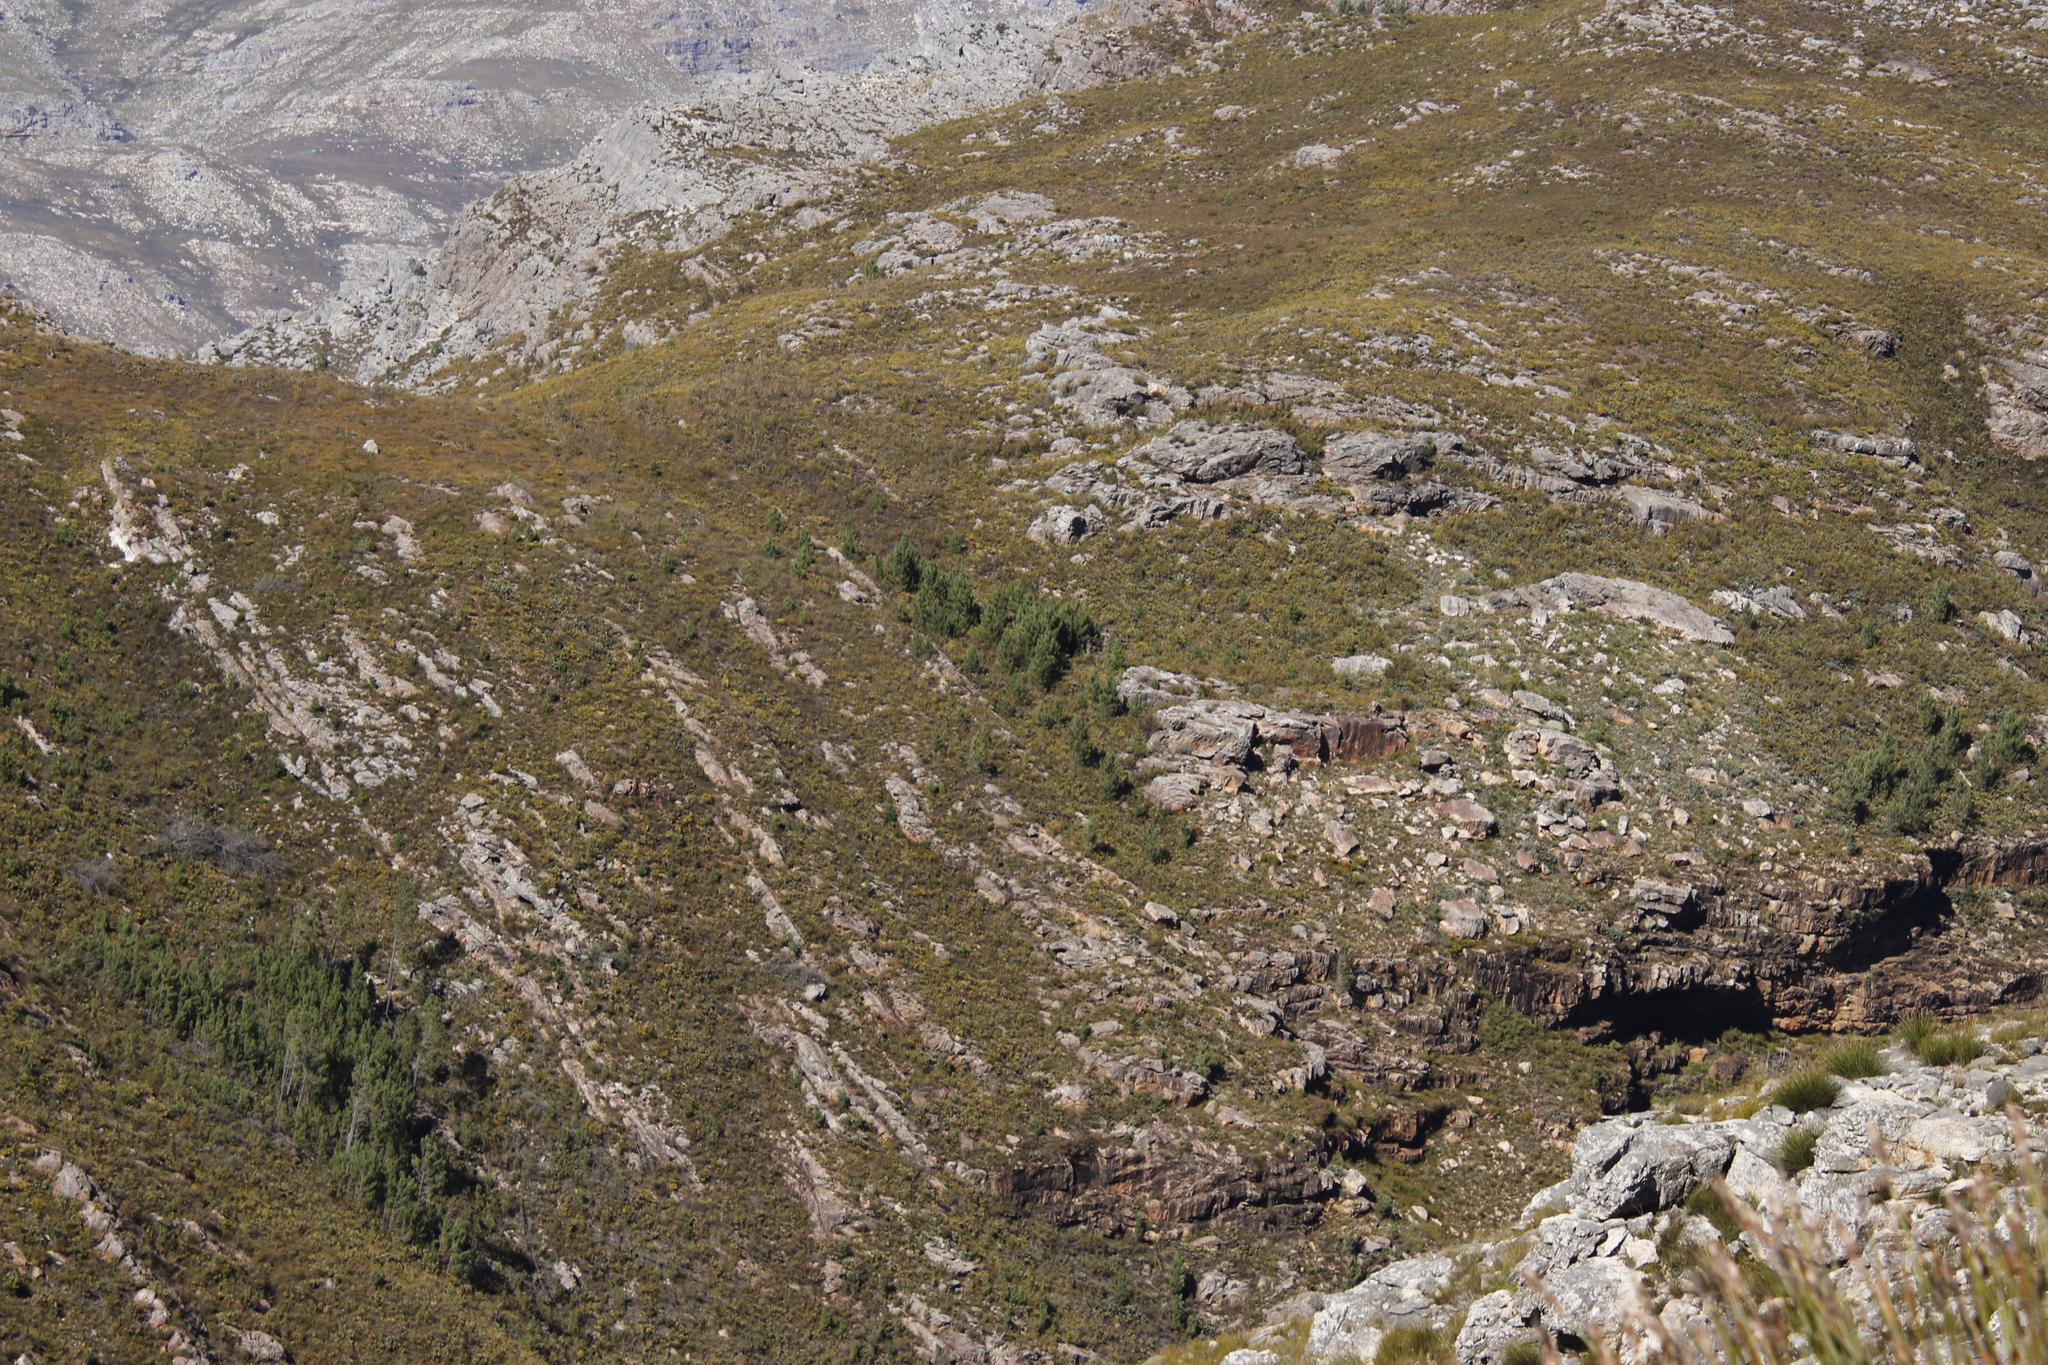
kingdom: Plantae
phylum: Tracheophyta
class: Pinopsida
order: Pinales
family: Pinaceae
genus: Pinus
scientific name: Pinus pinaster
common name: Maritime pine
